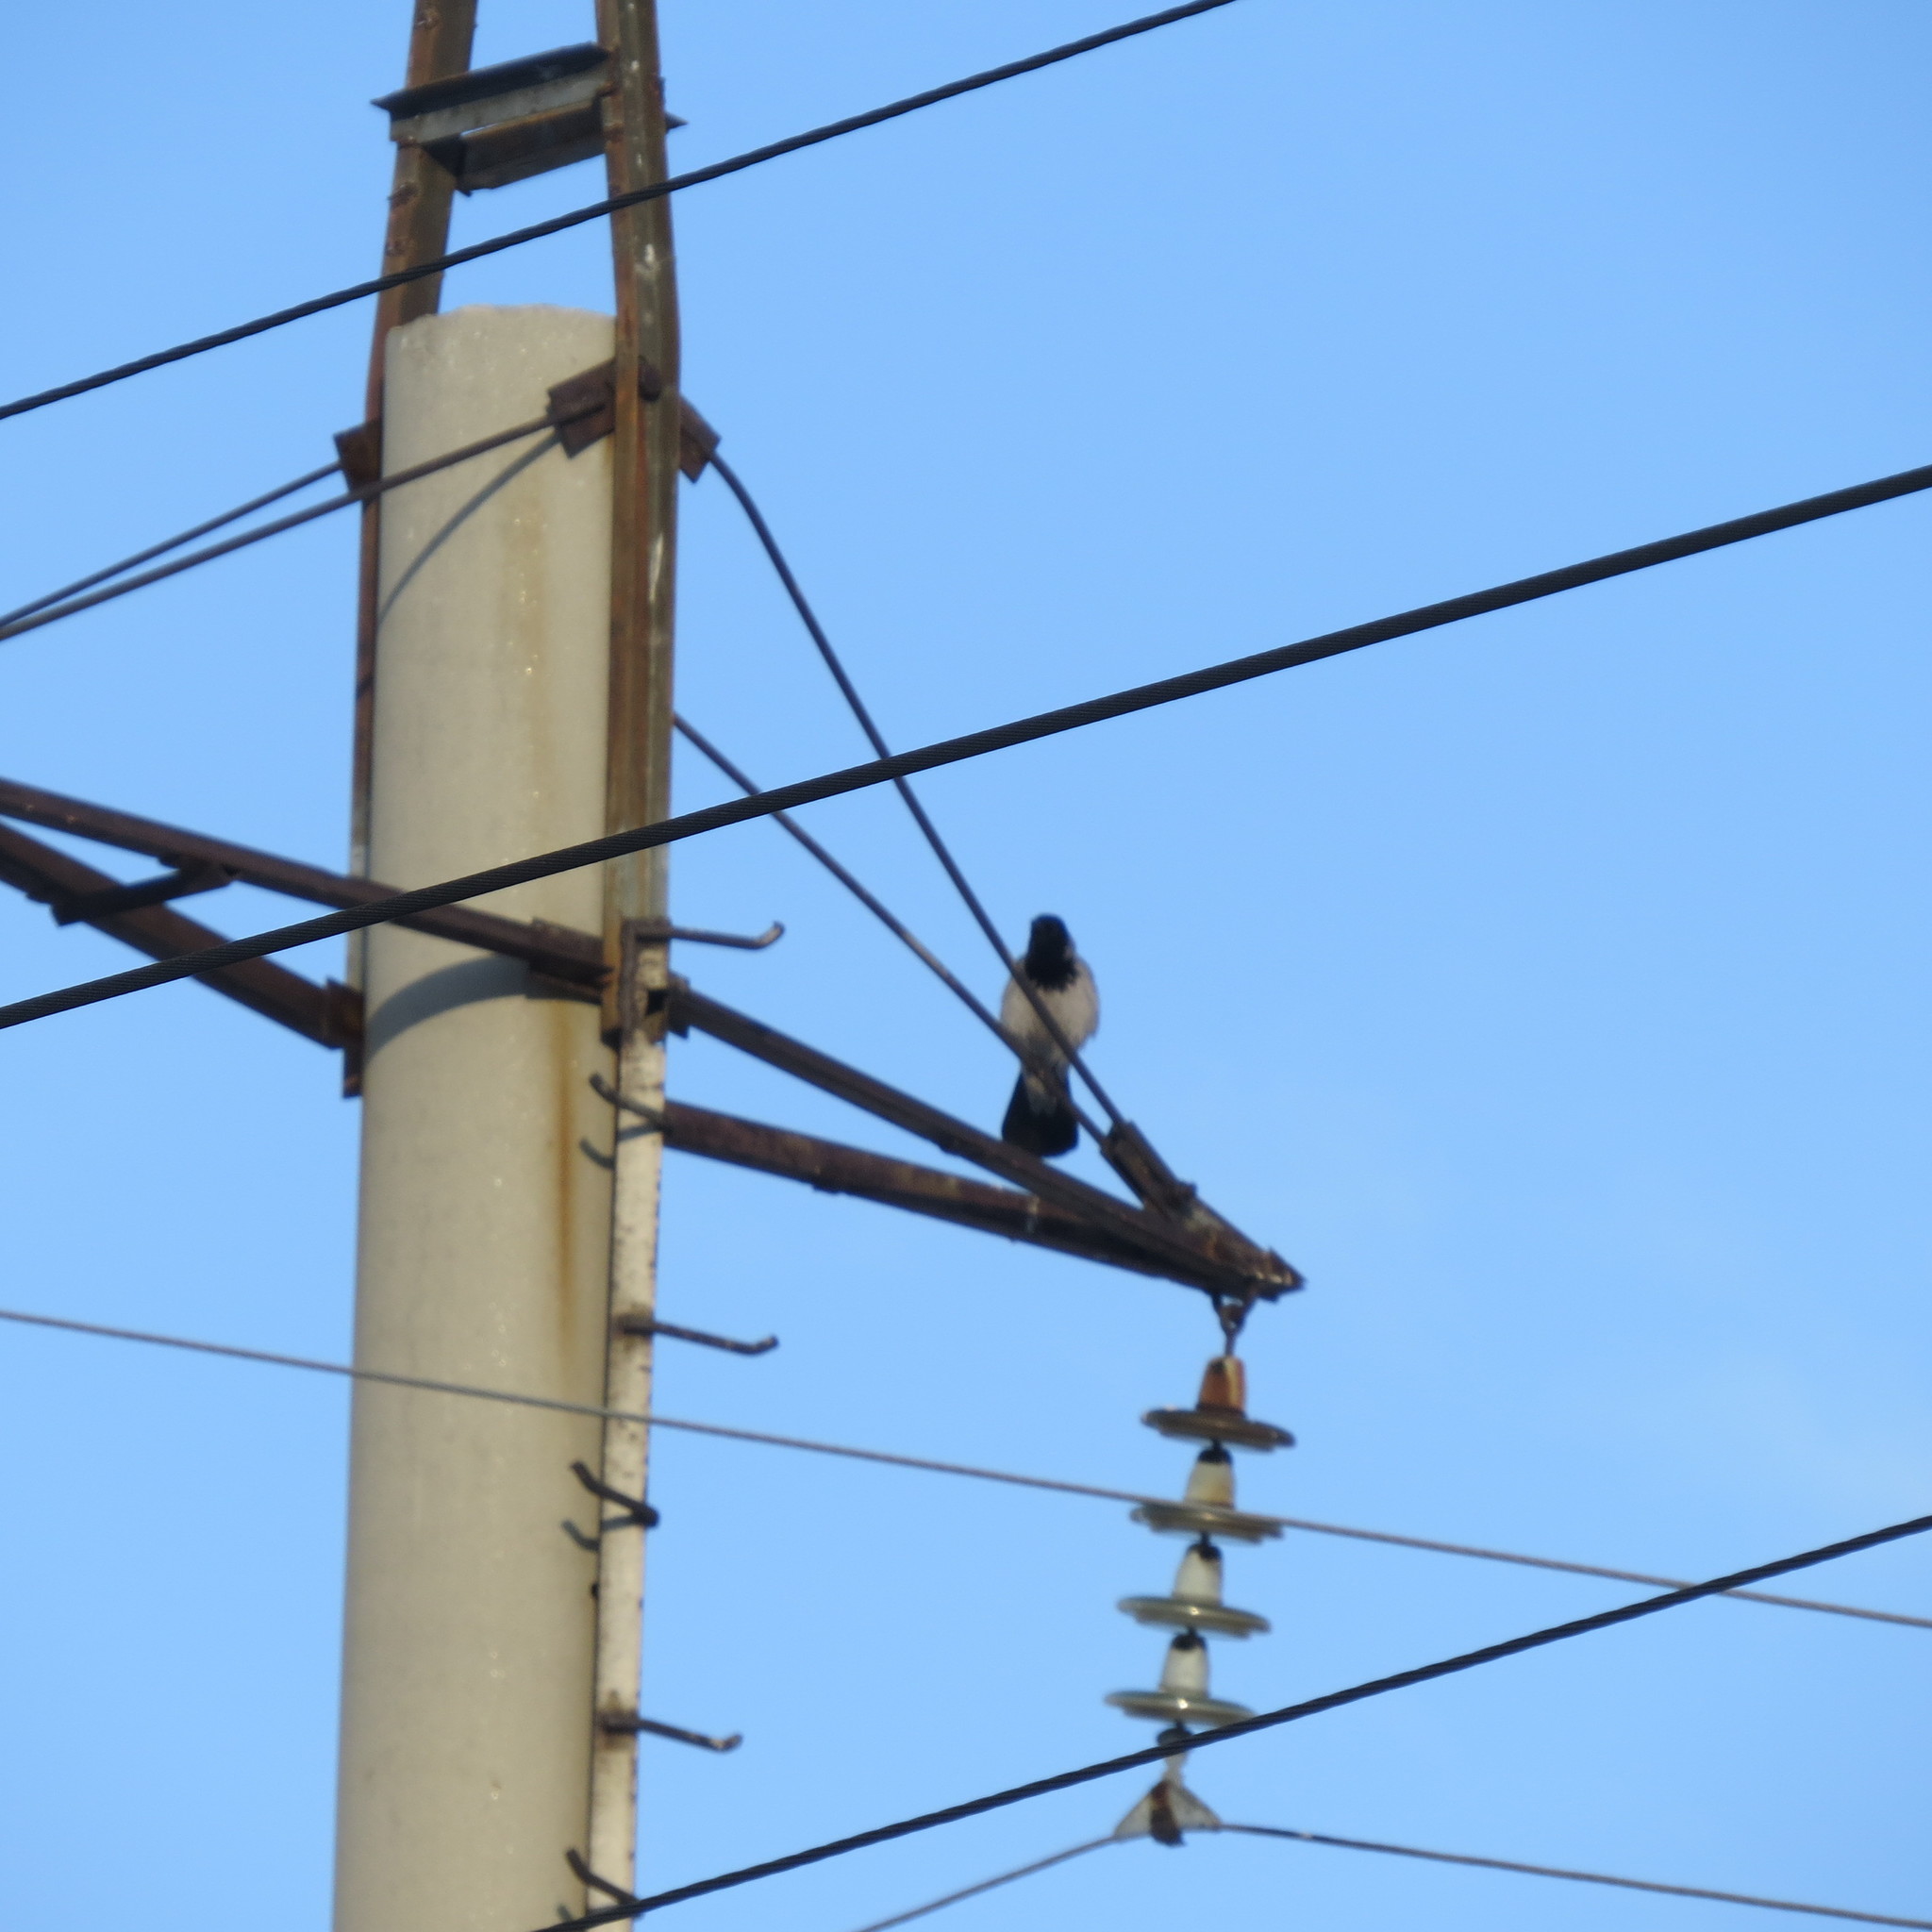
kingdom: Animalia
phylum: Chordata
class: Aves
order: Passeriformes
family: Corvidae
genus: Corvus
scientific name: Corvus cornix
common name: Hooded crow
